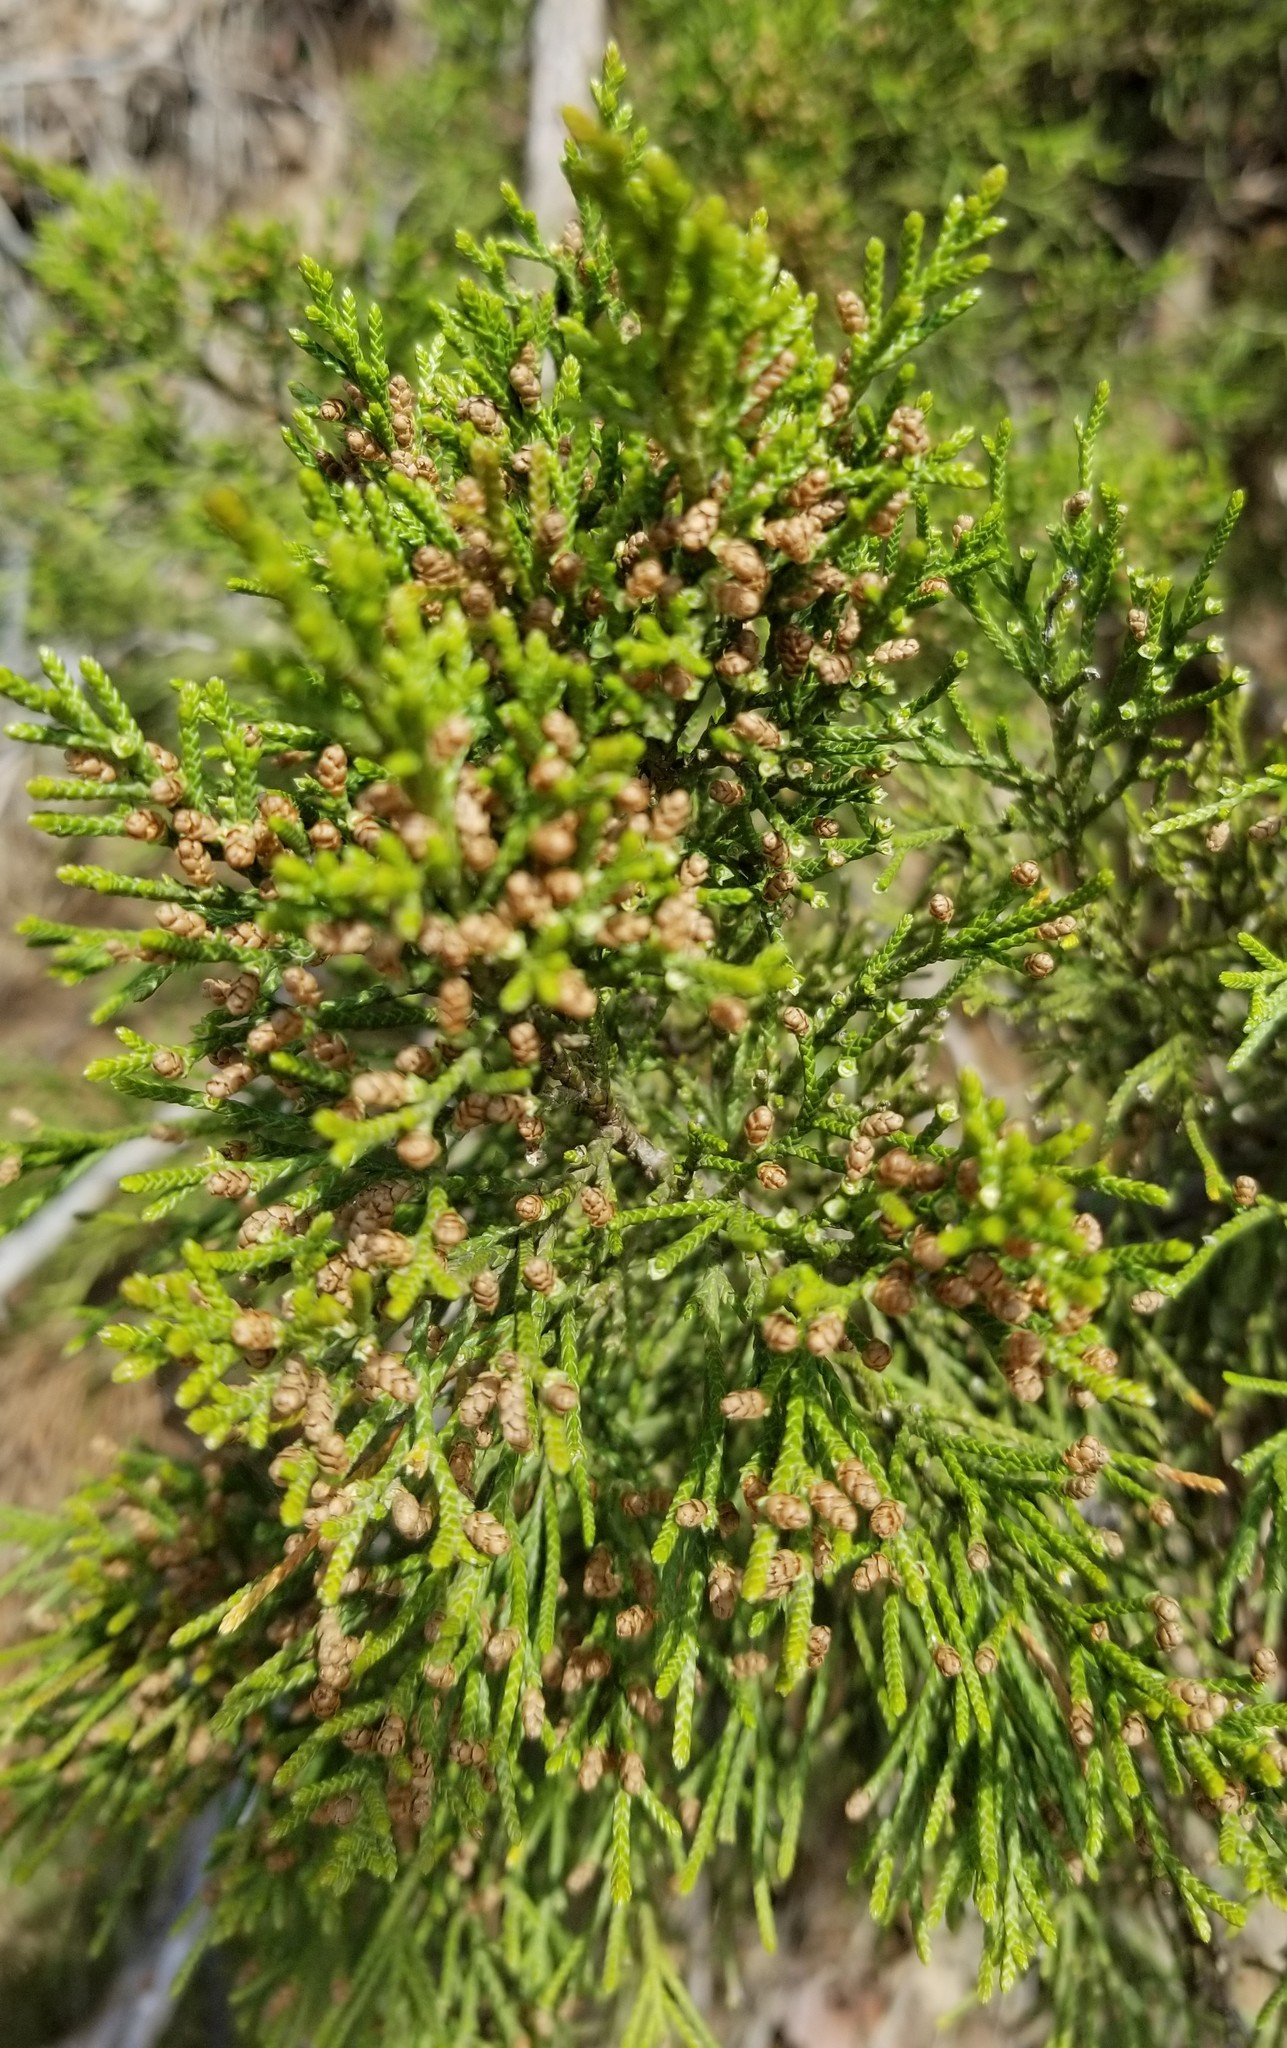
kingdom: Plantae
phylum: Tracheophyta
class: Pinopsida
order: Pinales
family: Cupressaceae
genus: Juniperus
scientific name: Juniperus virginiana
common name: Red juniper
